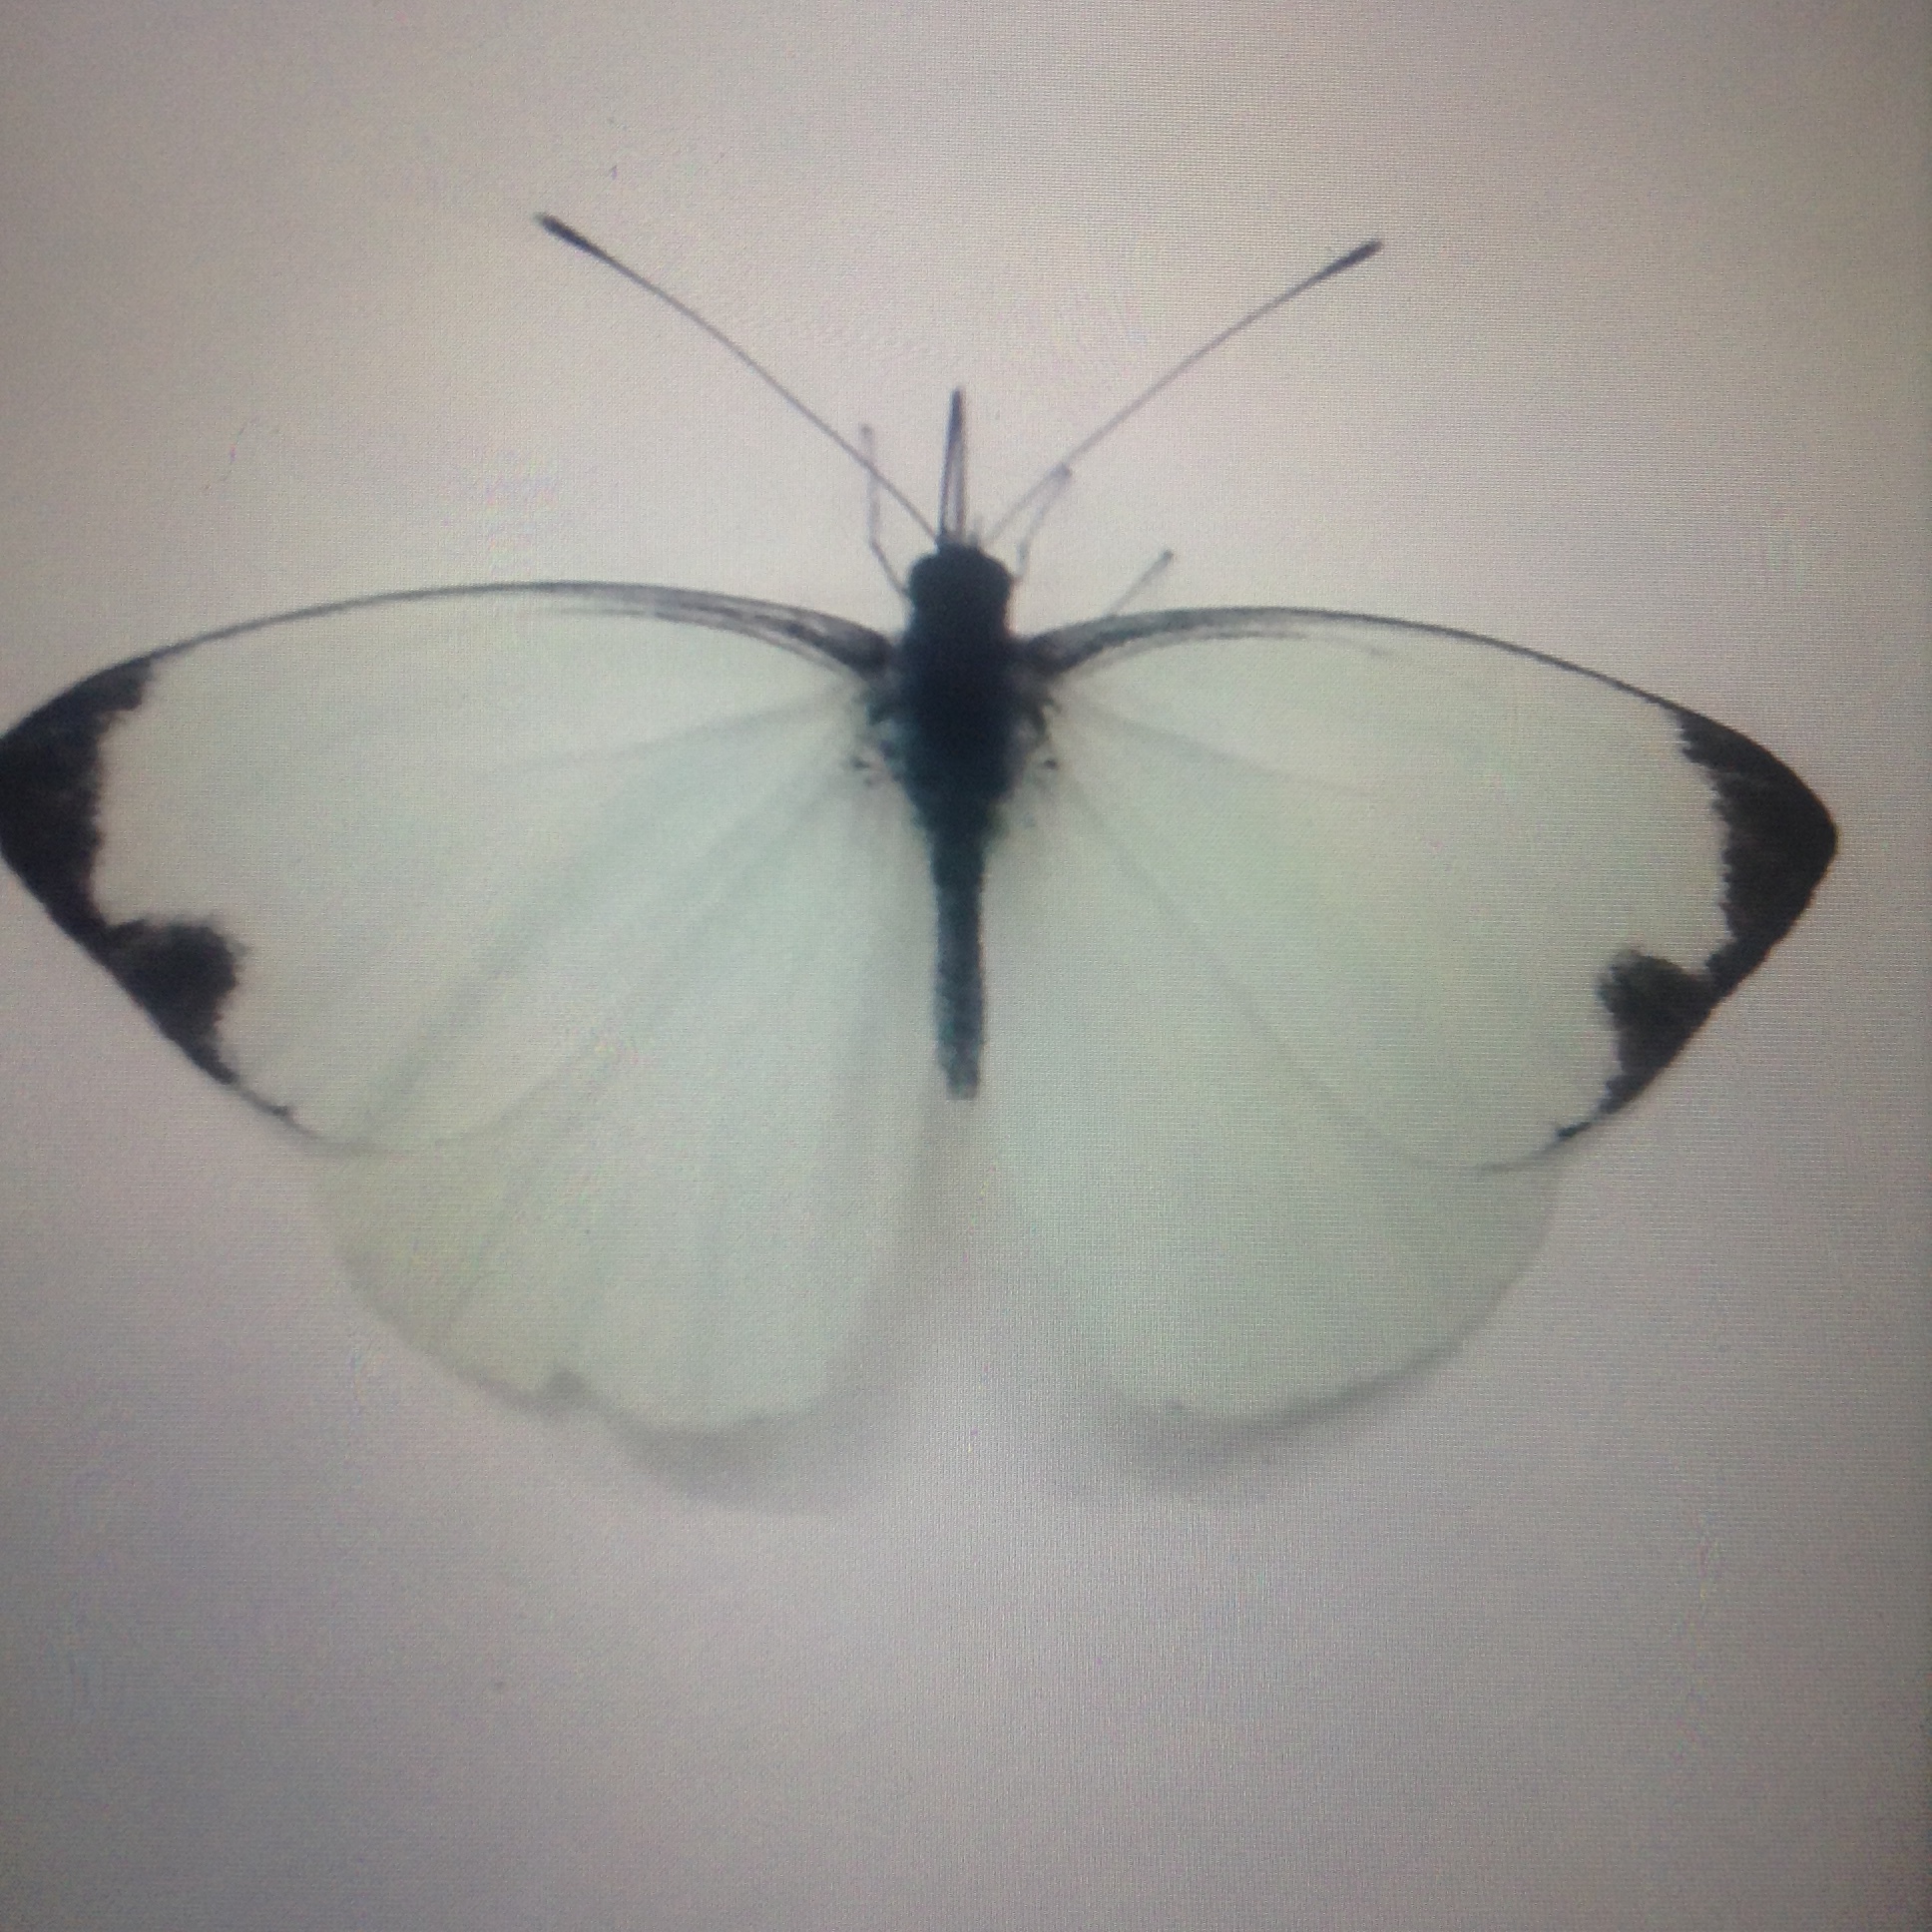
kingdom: Animalia
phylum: Arthropoda
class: Insecta
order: Lepidoptera
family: Pieridae
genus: Leptophobia
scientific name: Leptophobia aripa
